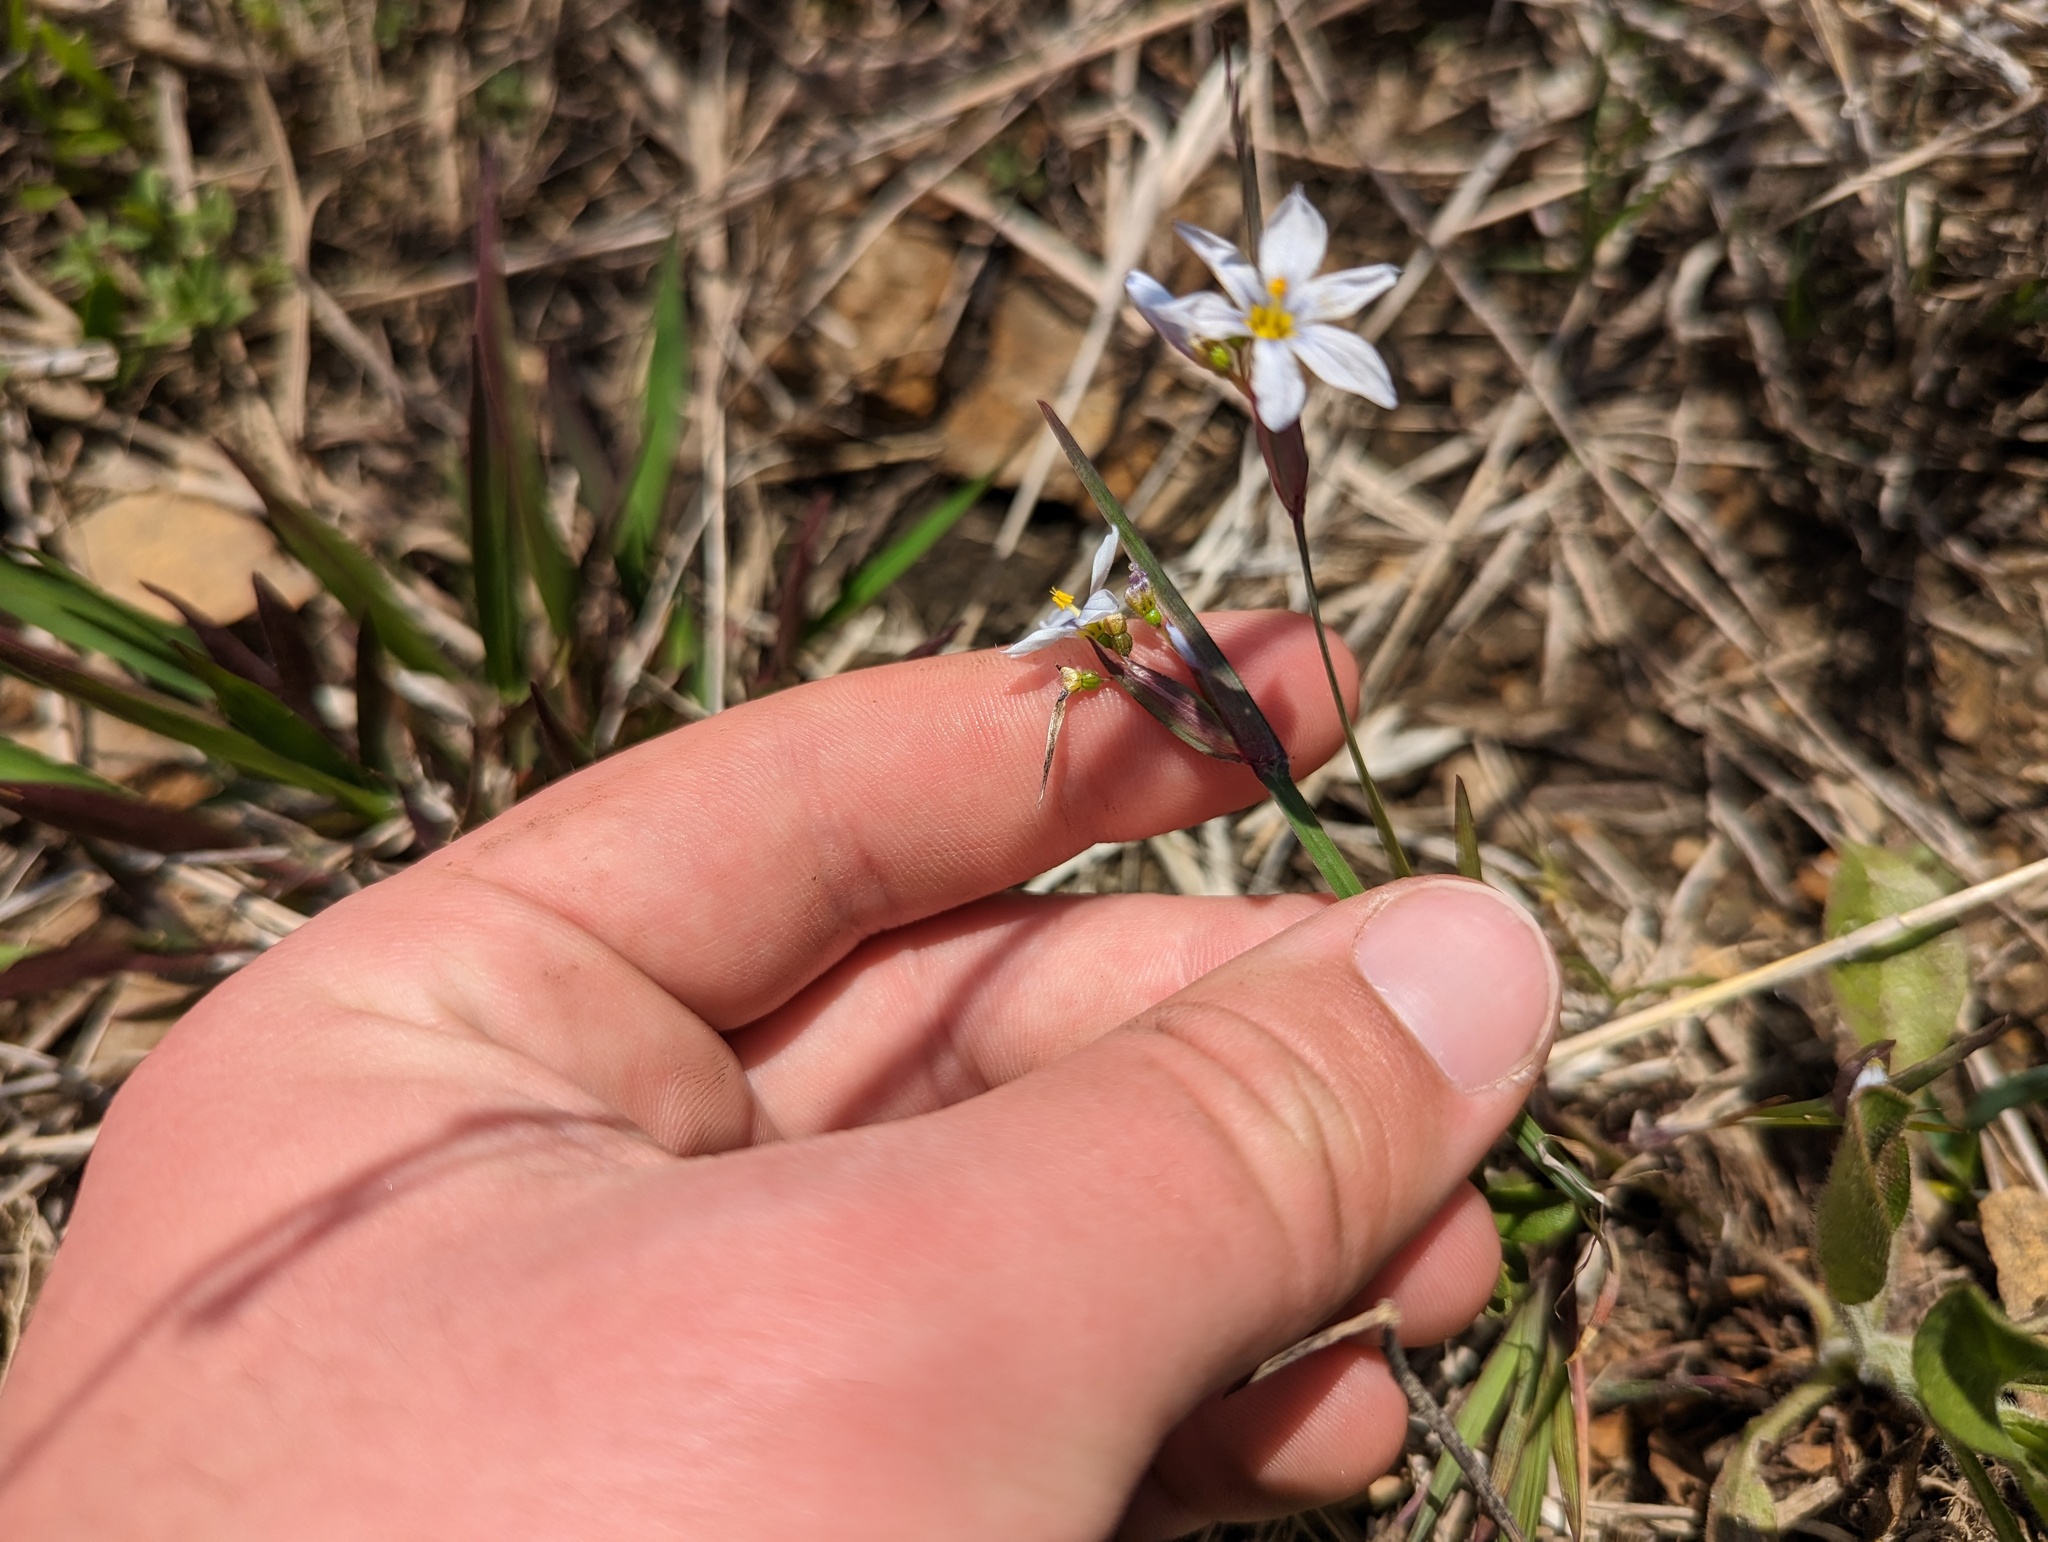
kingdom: Plantae
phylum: Tracheophyta
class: Liliopsida
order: Asparagales
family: Iridaceae
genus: Sisyrinchium
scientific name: Sisyrinchium albidum
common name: Pale blue-eyed-grass
